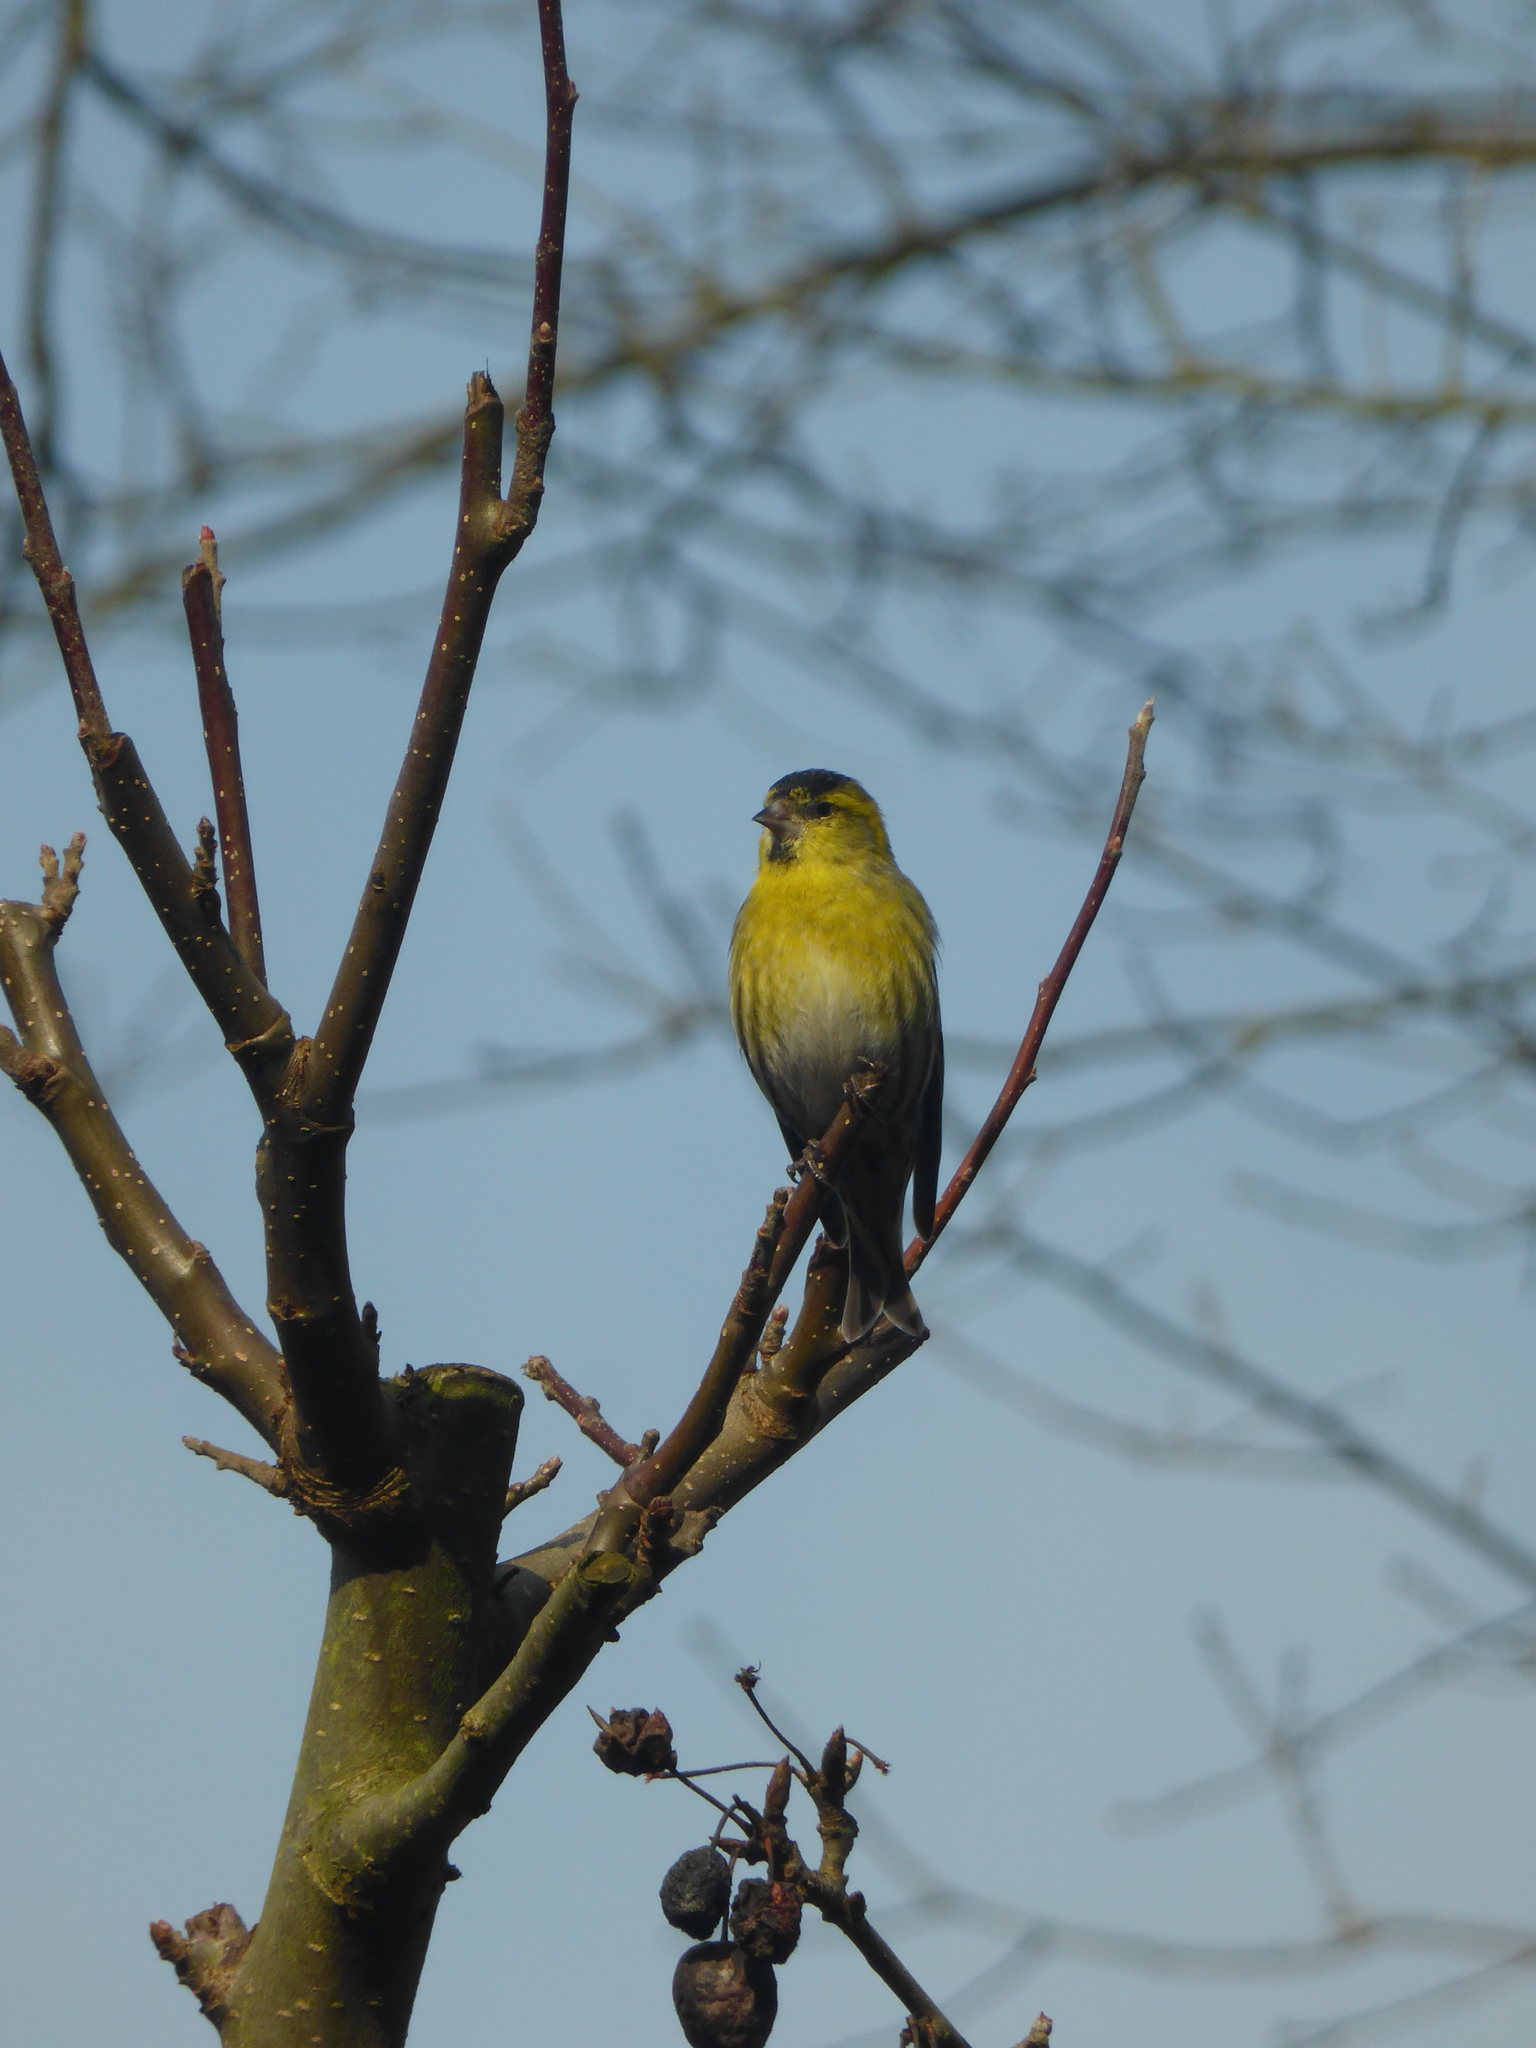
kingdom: Animalia
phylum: Chordata
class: Aves
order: Passeriformes
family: Fringillidae
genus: Spinus
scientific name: Spinus spinus
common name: Eurasian siskin
